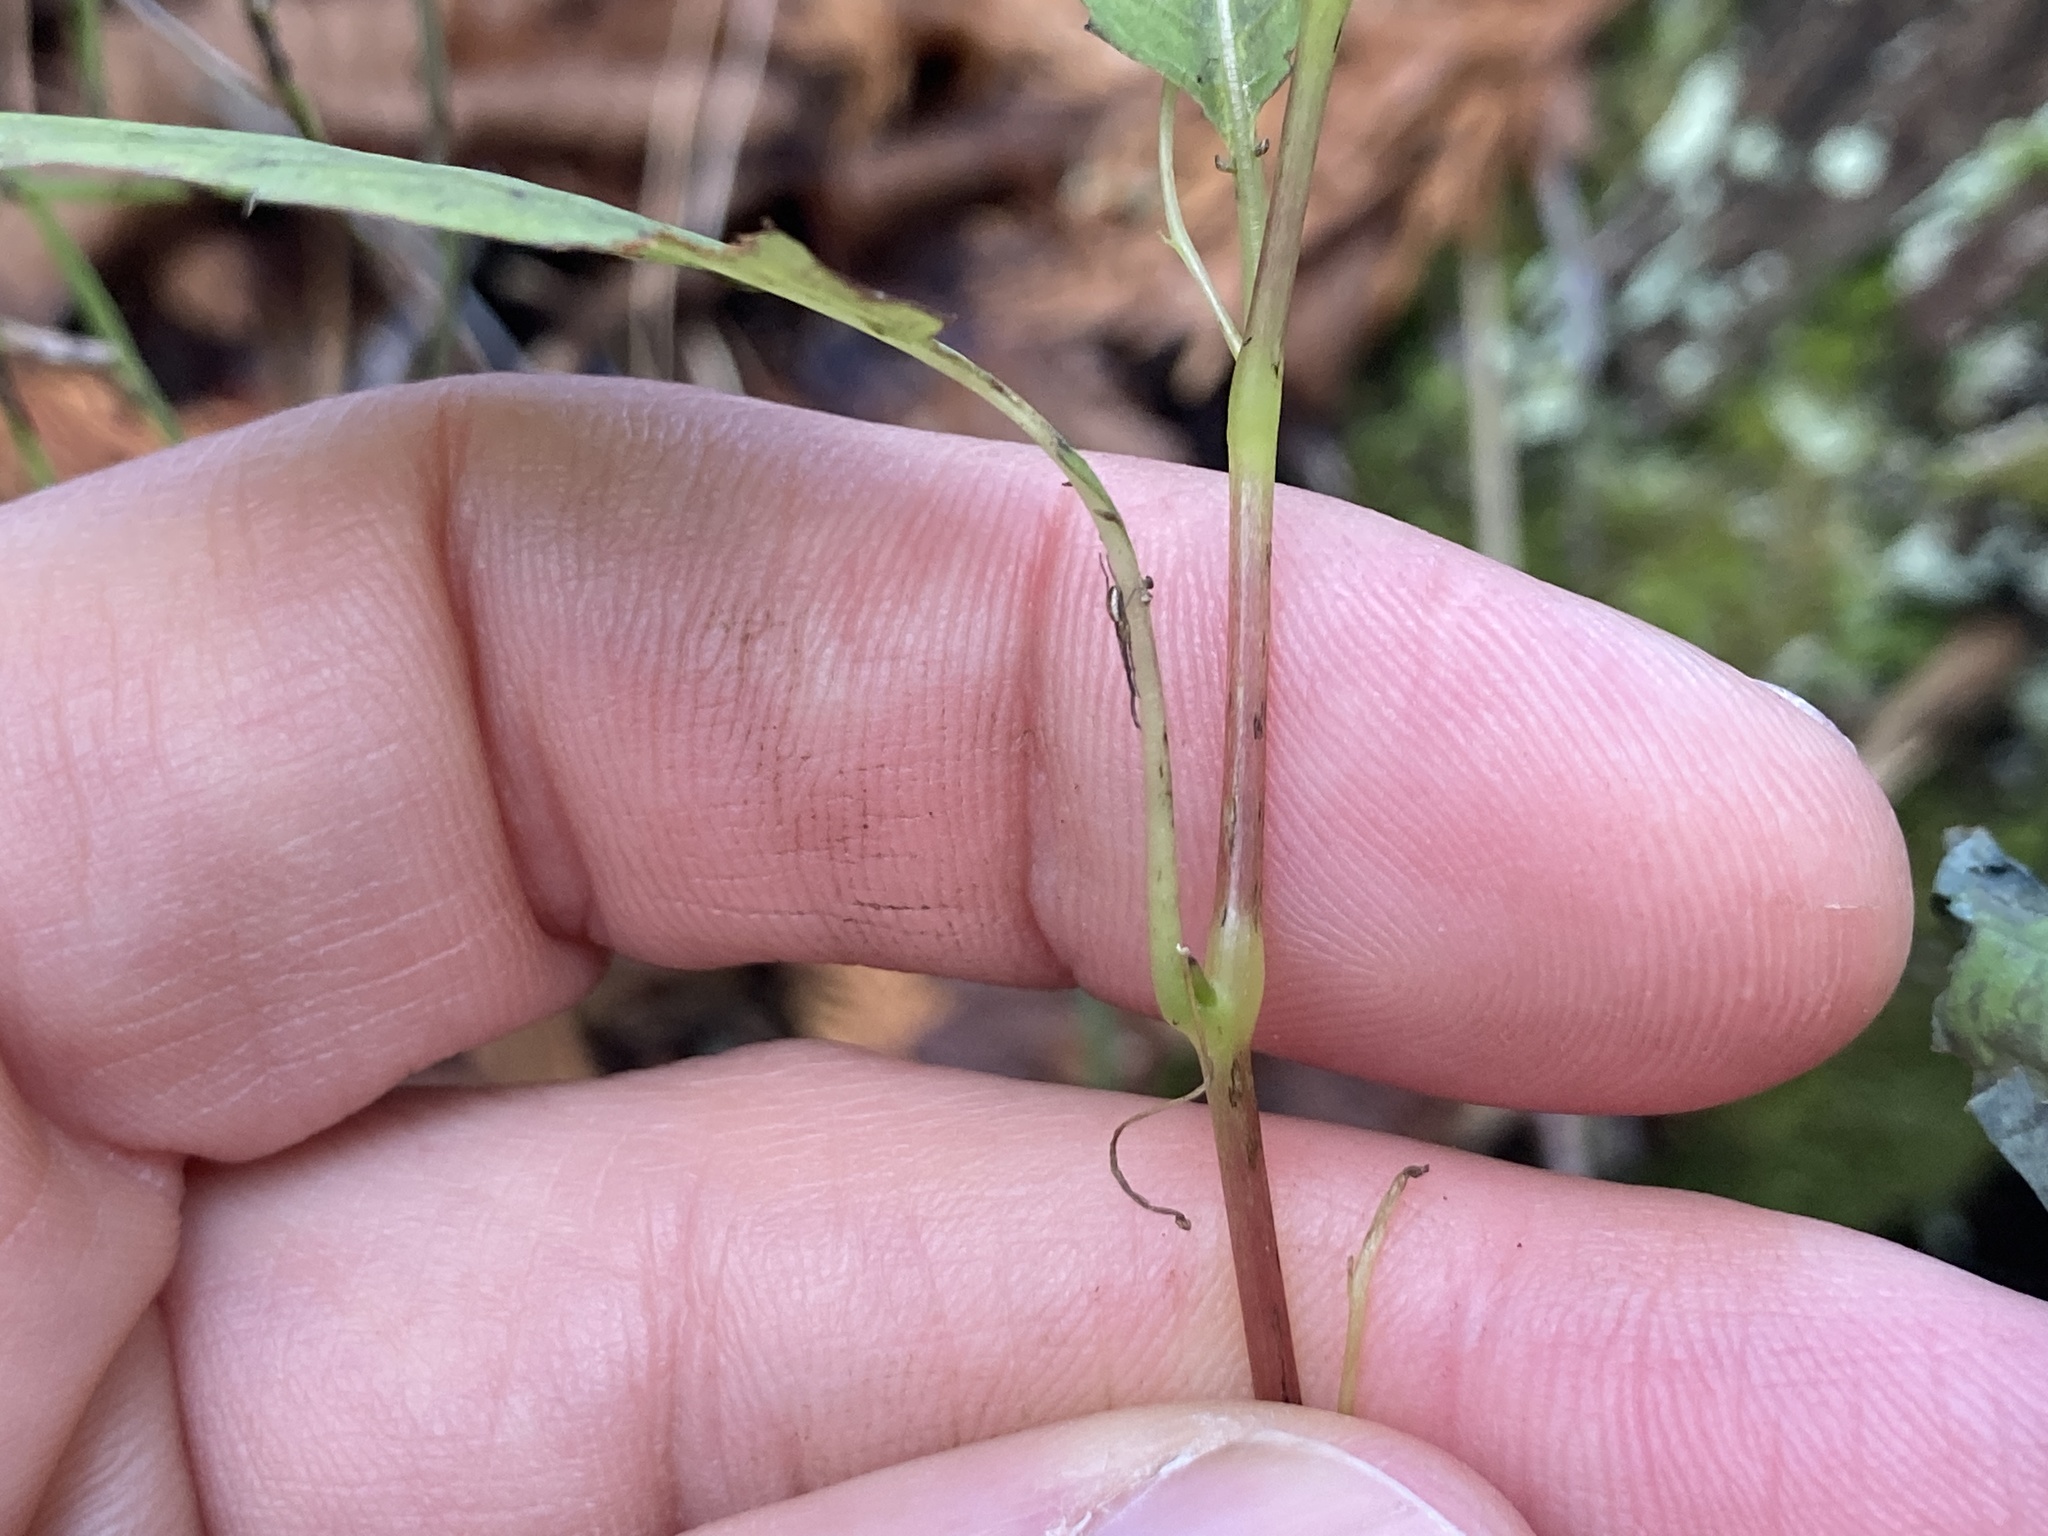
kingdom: Plantae
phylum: Tracheophyta
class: Magnoliopsida
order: Ericales
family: Balsaminaceae
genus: Impatiens
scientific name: Impatiens capensis
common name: Orange balsam
